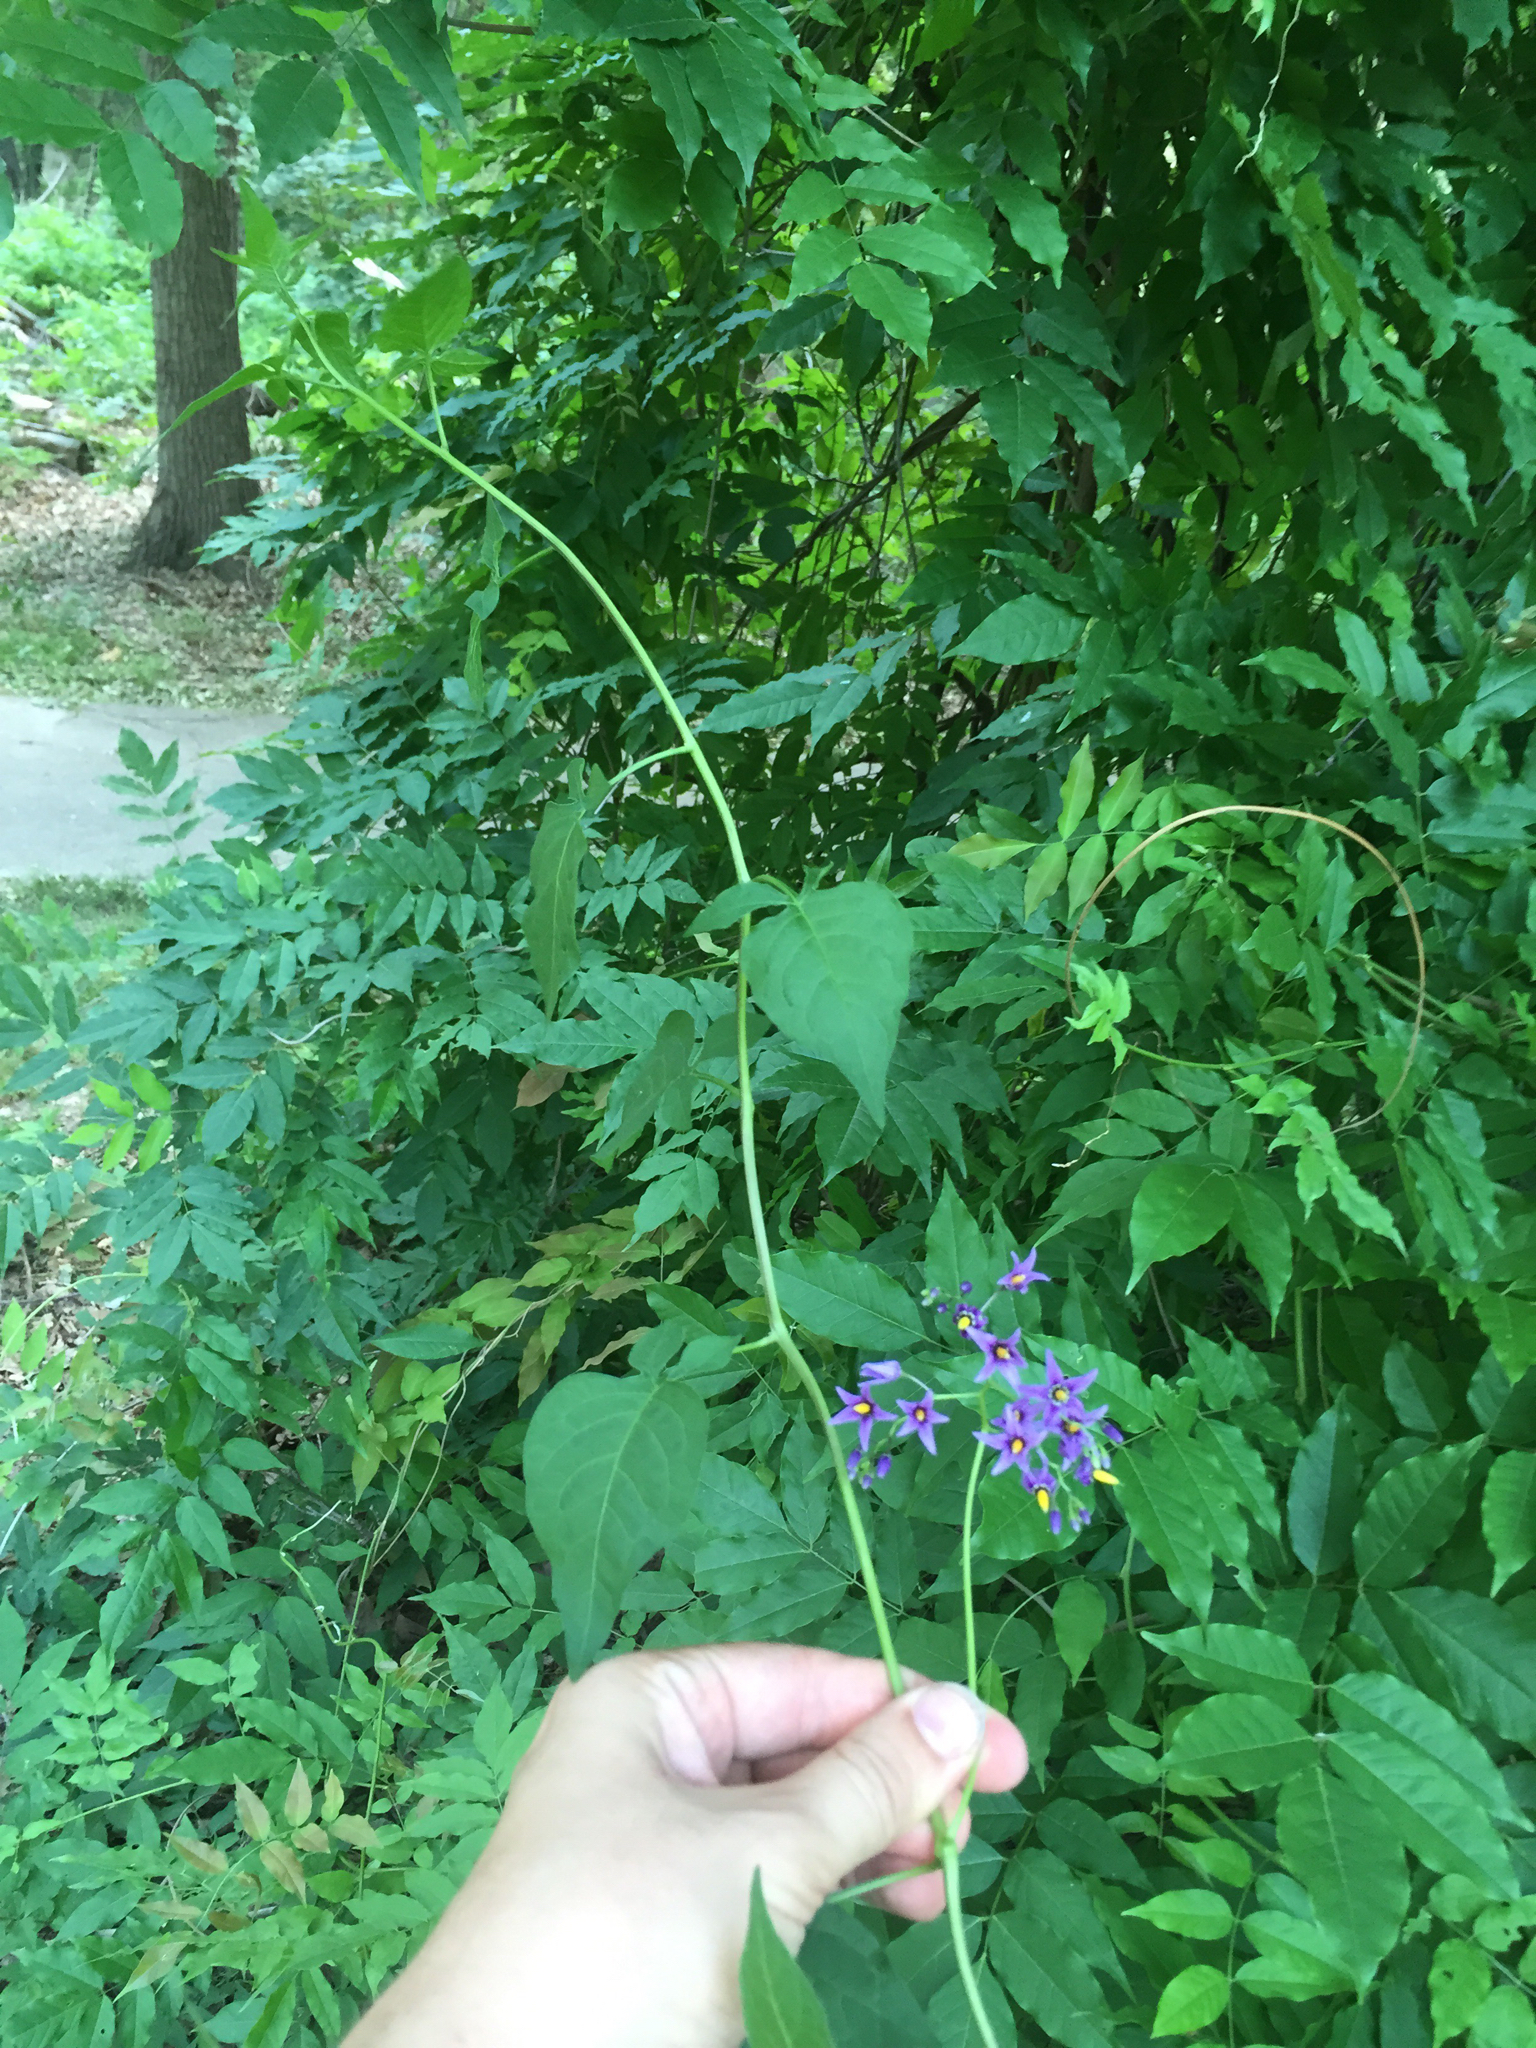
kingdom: Plantae
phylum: Tracheophyta
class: Magnoliopsida
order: Solanales
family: Solanaceae
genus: Solanum
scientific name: Solanum dulcamara
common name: Climbing nightshade
